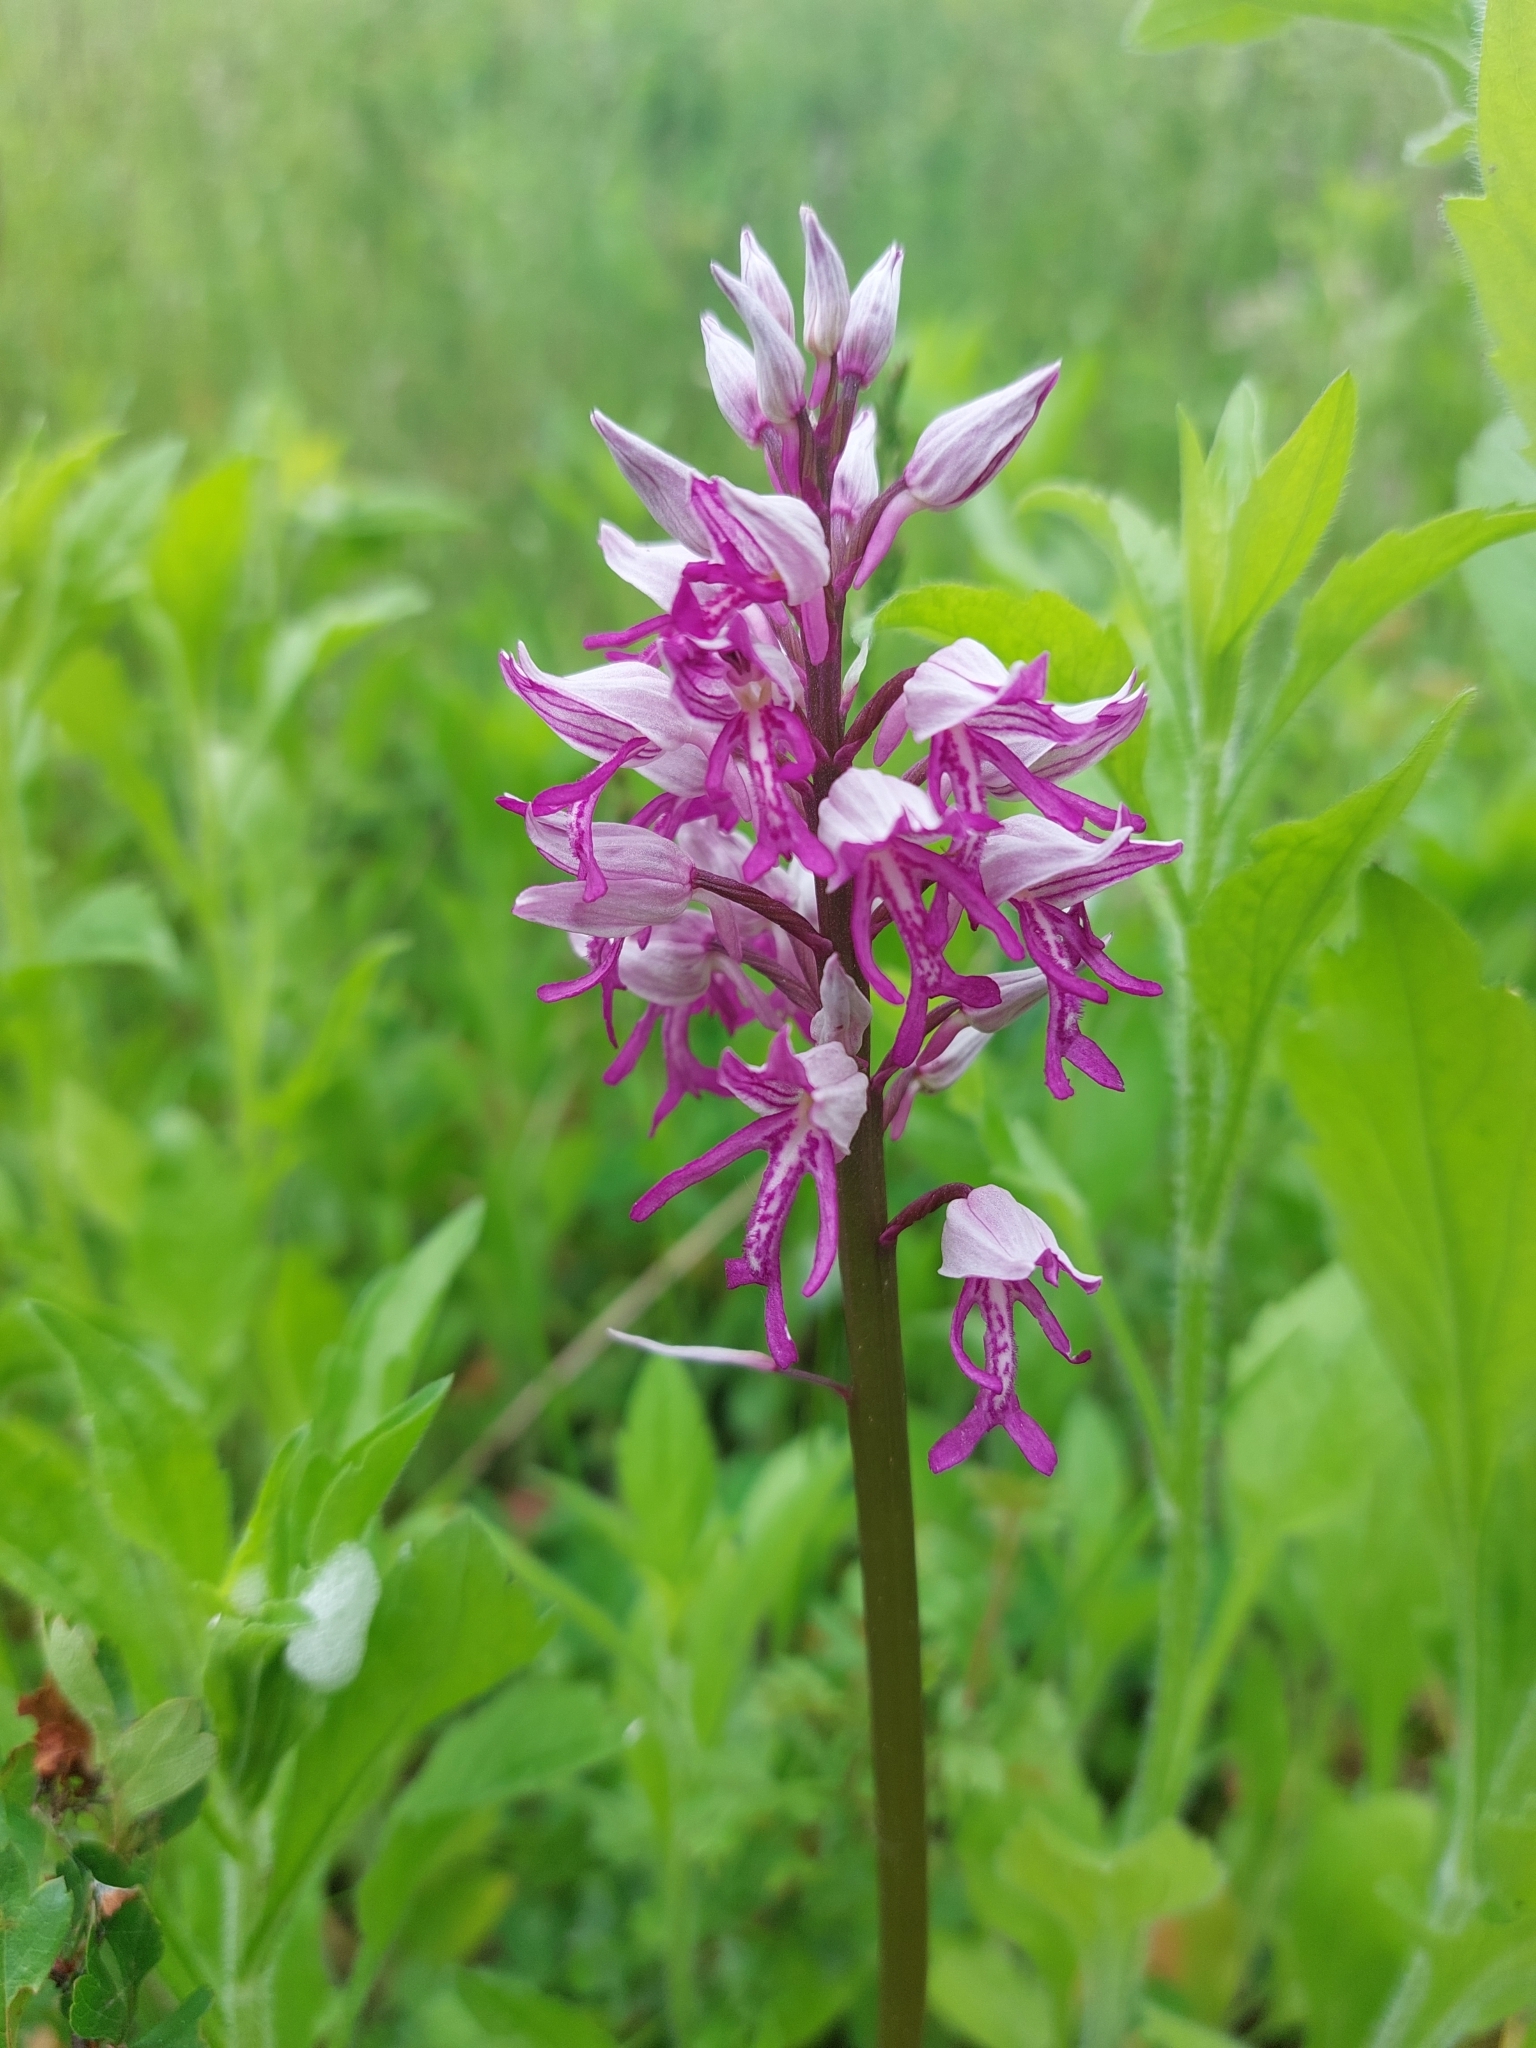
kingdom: Plantae
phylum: Tracheophyta
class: Liliopsida
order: Asparagales
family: Orchidaceae
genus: Orchis
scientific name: Orchis militaris
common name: Military orchid
